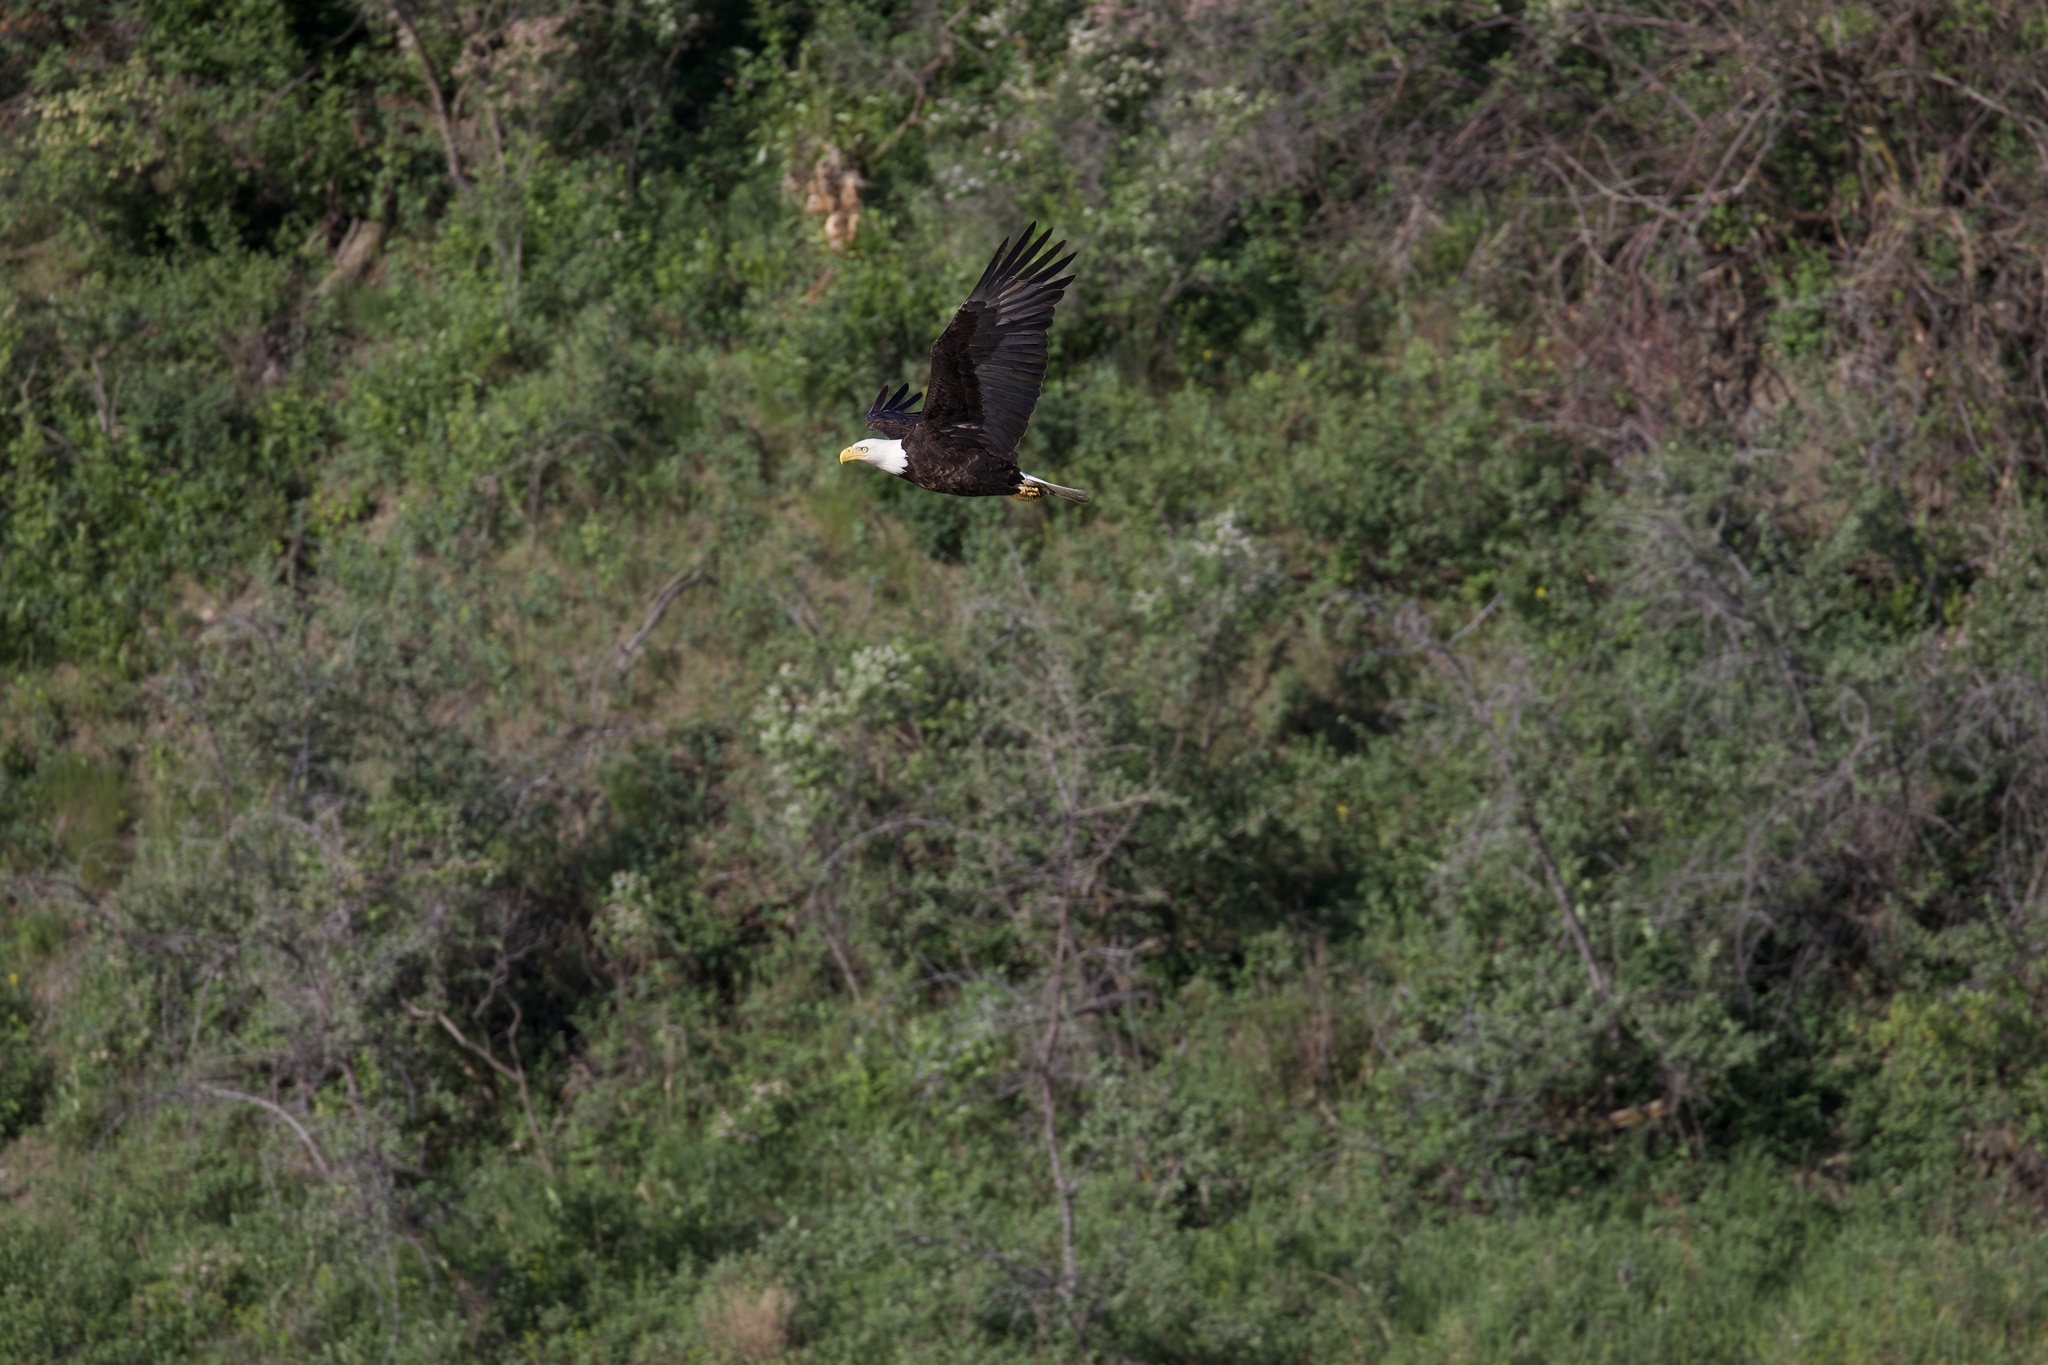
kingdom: Animalia
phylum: Chordata
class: Aves
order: Accipitriformes
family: Accipitridae
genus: Haliaeetus
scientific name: Haliaeetus leucocephalus
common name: Bald eagle
